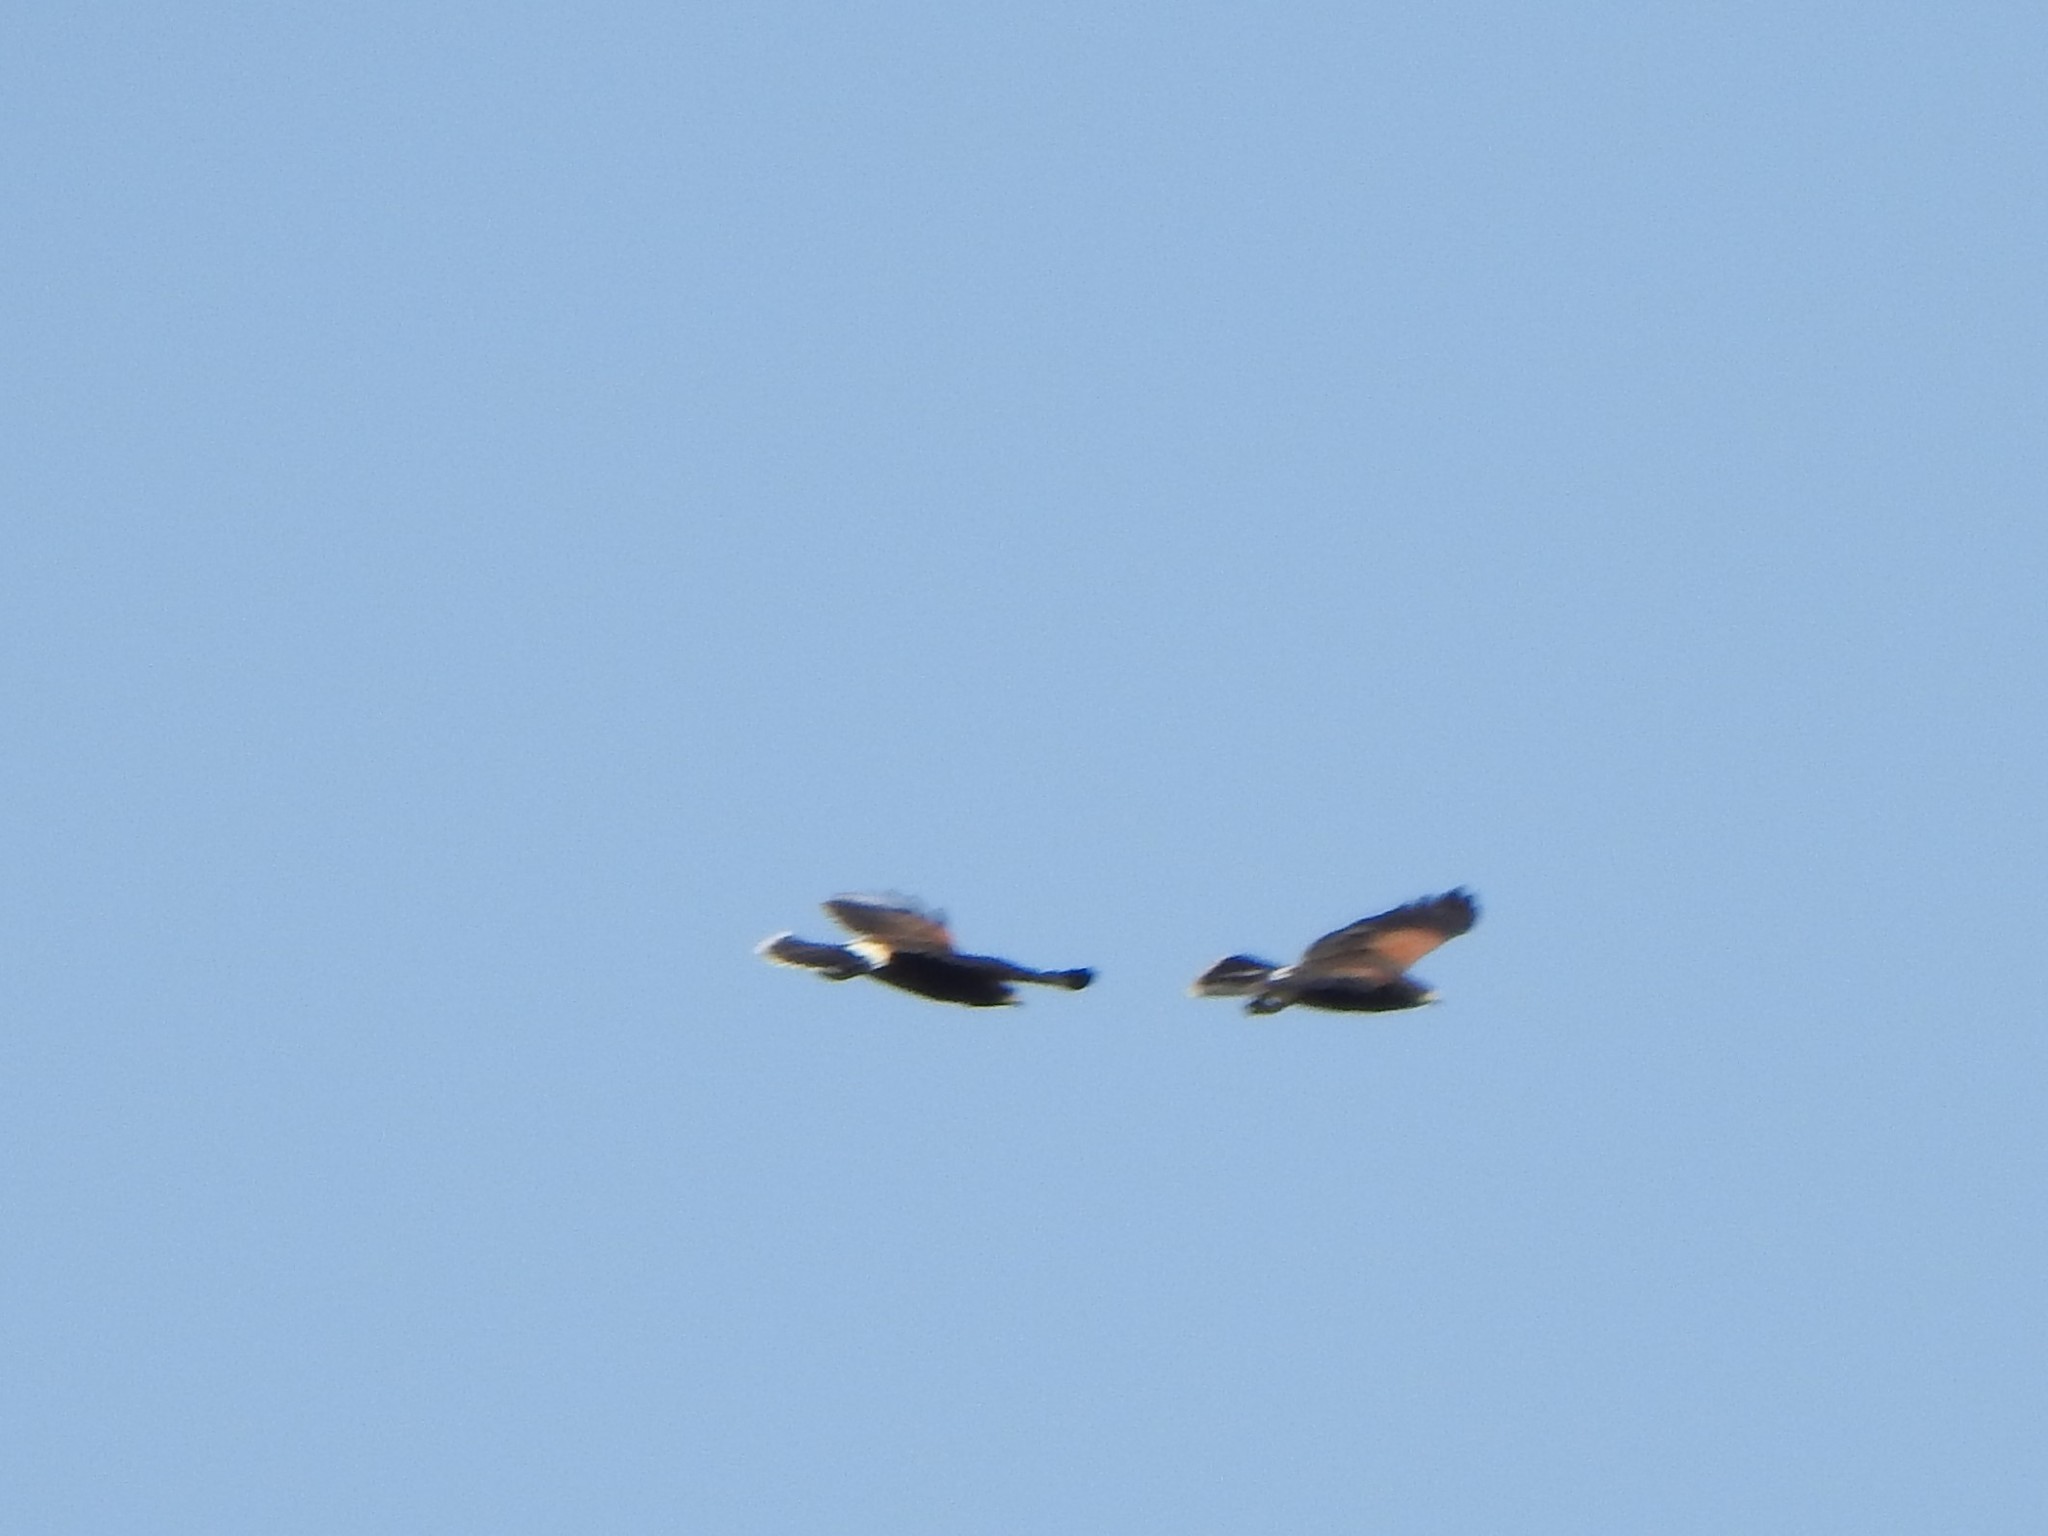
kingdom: Animalia
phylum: Chordata
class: Aves
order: Accipitriformes
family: Accipitridae
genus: Parabuteo
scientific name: Parabuteo unicinctus
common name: Harris's hawk
